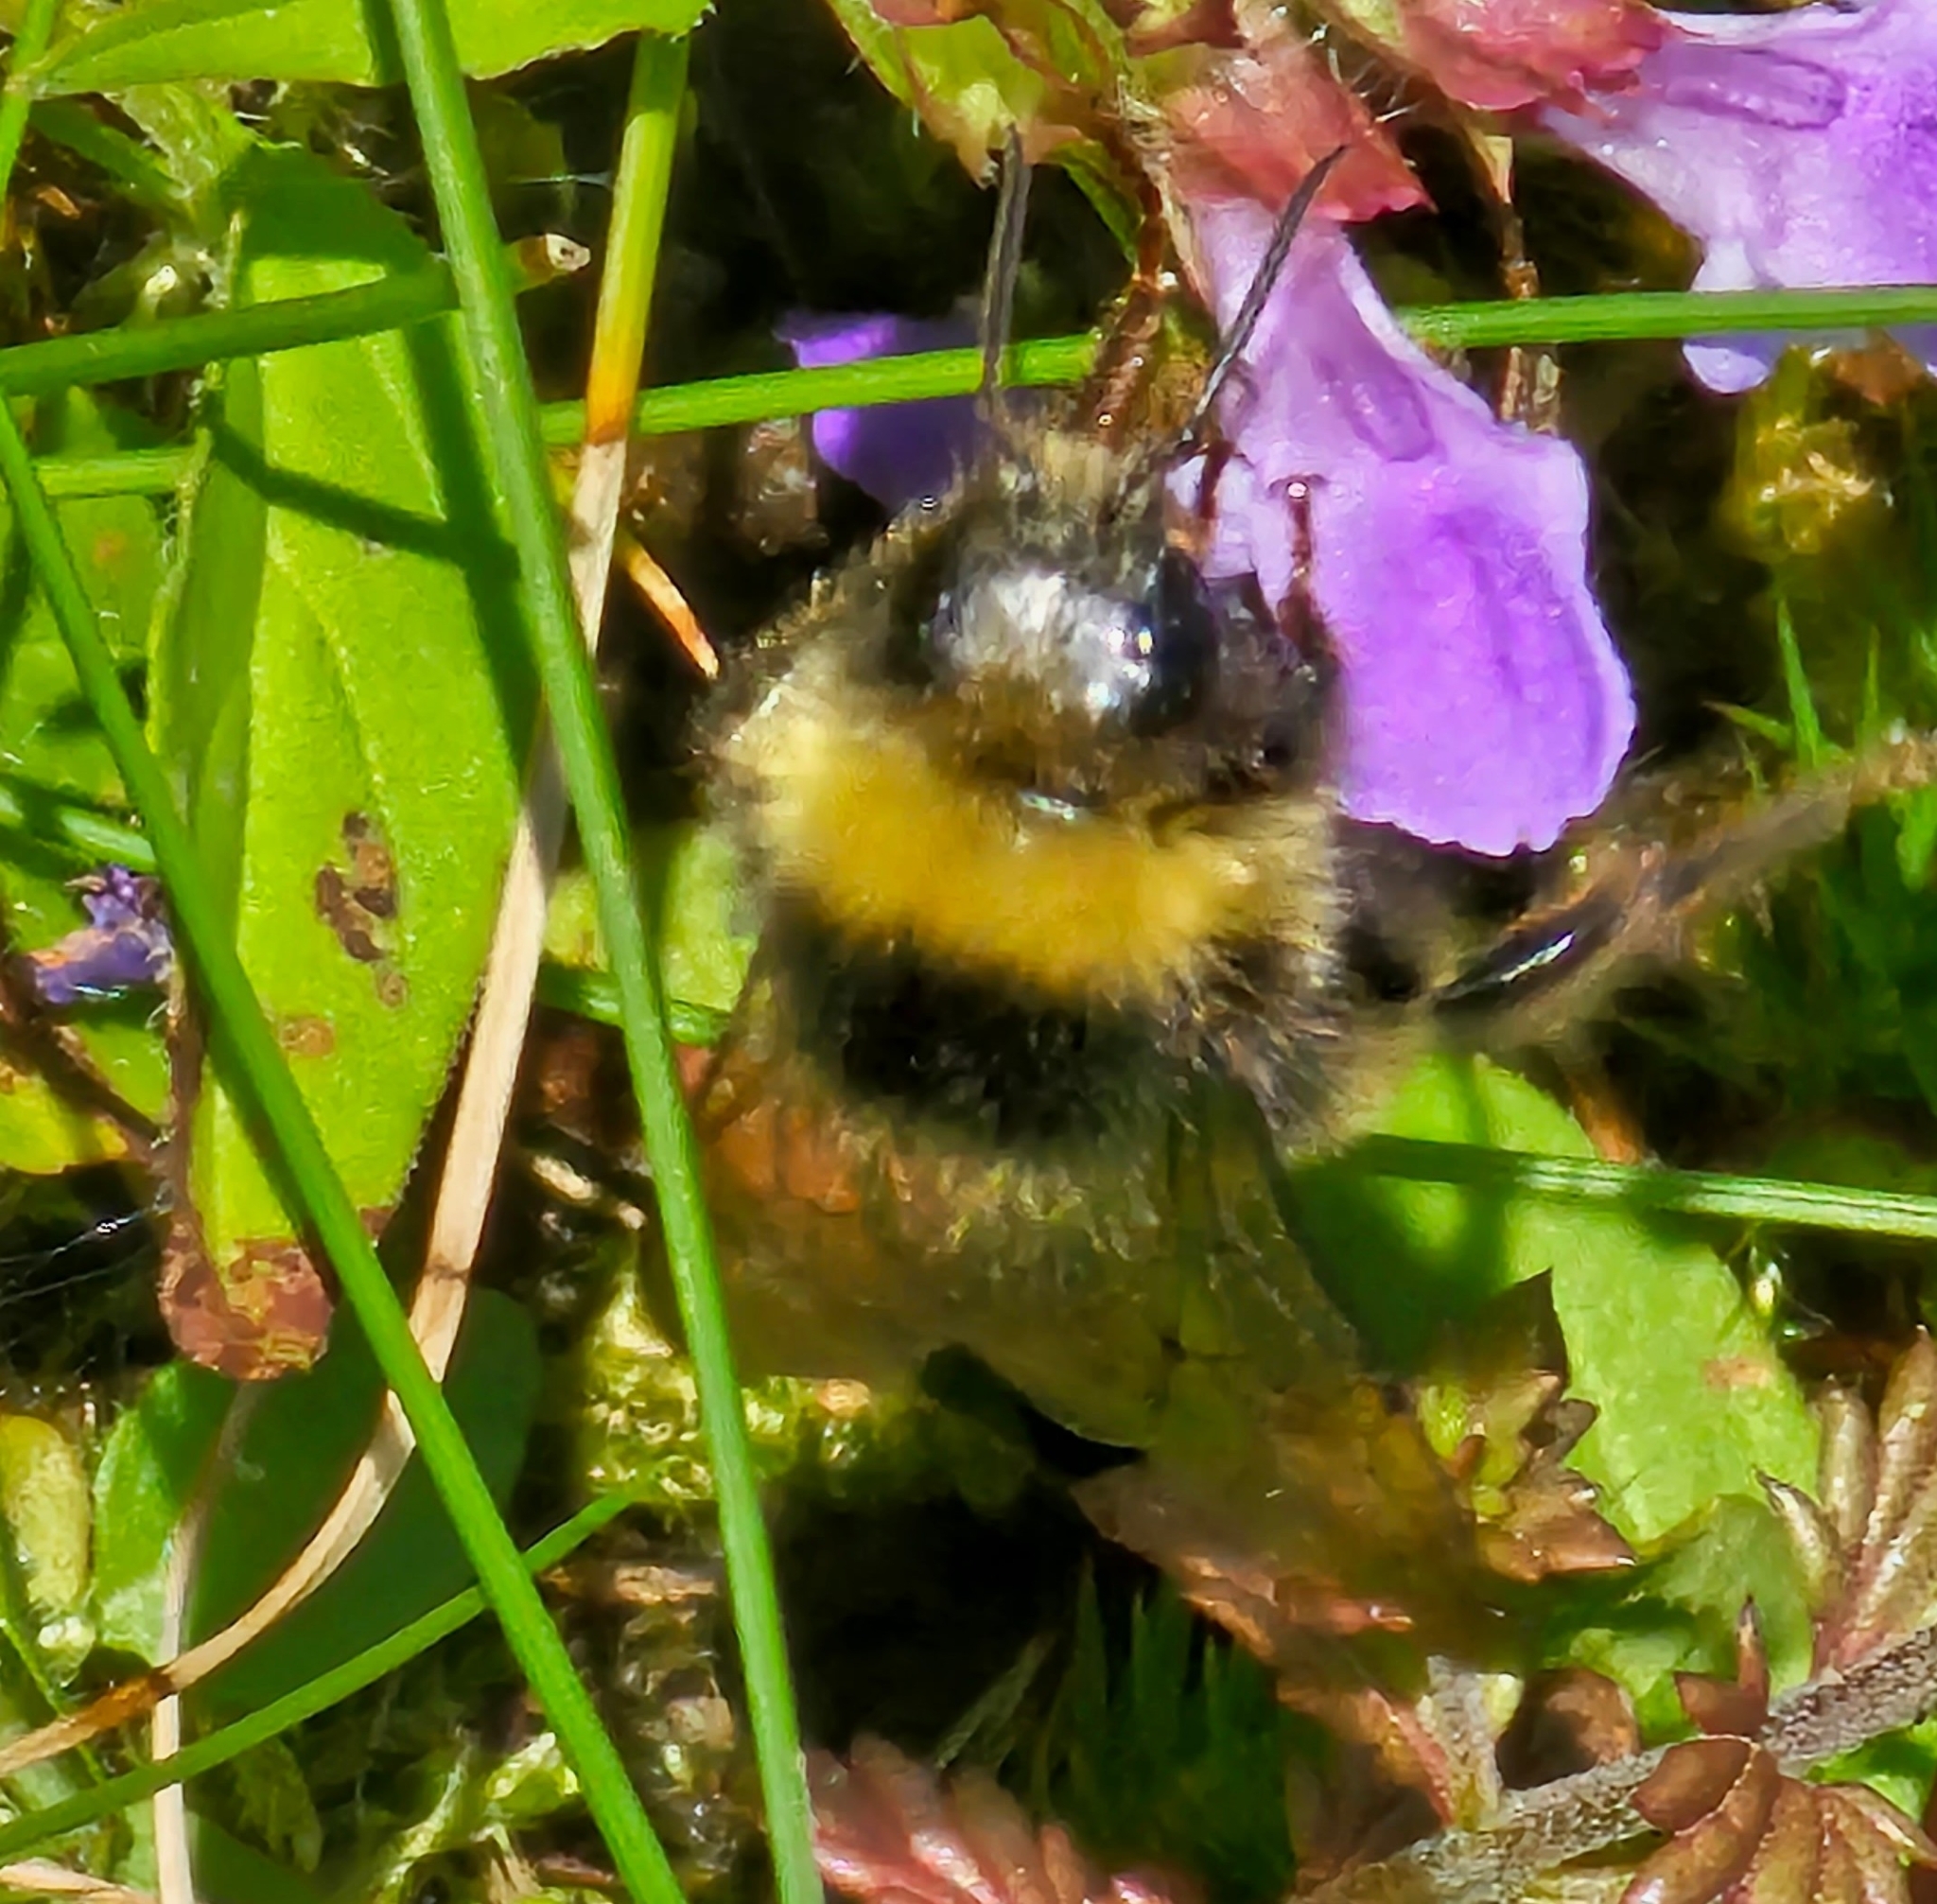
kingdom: Animalia
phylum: Arthropoda
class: Insecta
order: Hymenoptera
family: Apidae
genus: Bombus
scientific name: Bombus terricola
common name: Yellow-banded bumble bee
